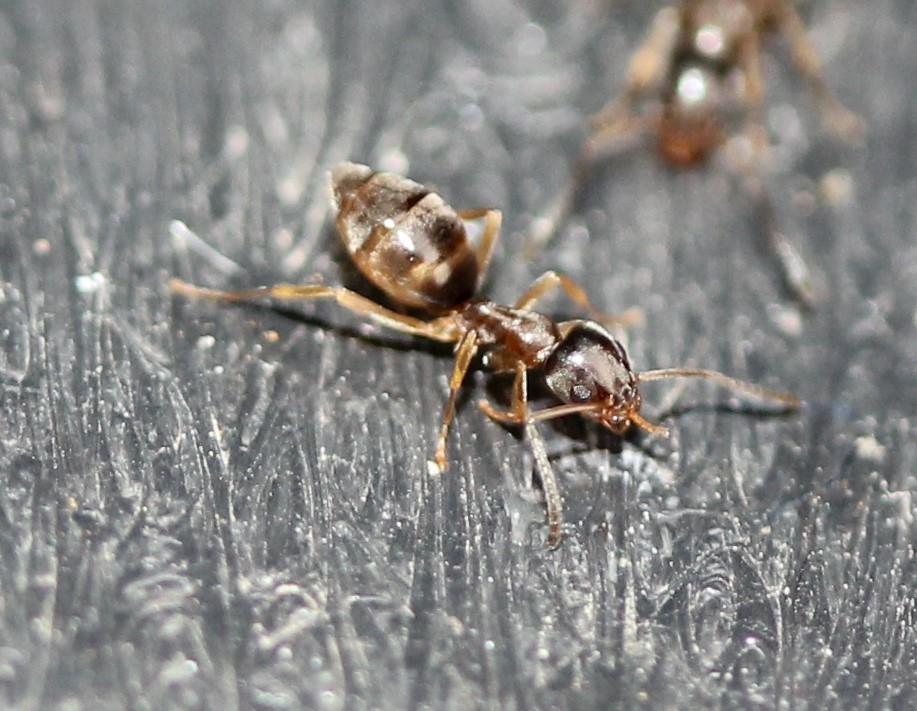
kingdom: Animalia
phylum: Arthropoda
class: Insecta
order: Hymenoptera
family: Formicidae
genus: Tapinoma
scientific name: Tapinoma sessile
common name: Odorous house ant
